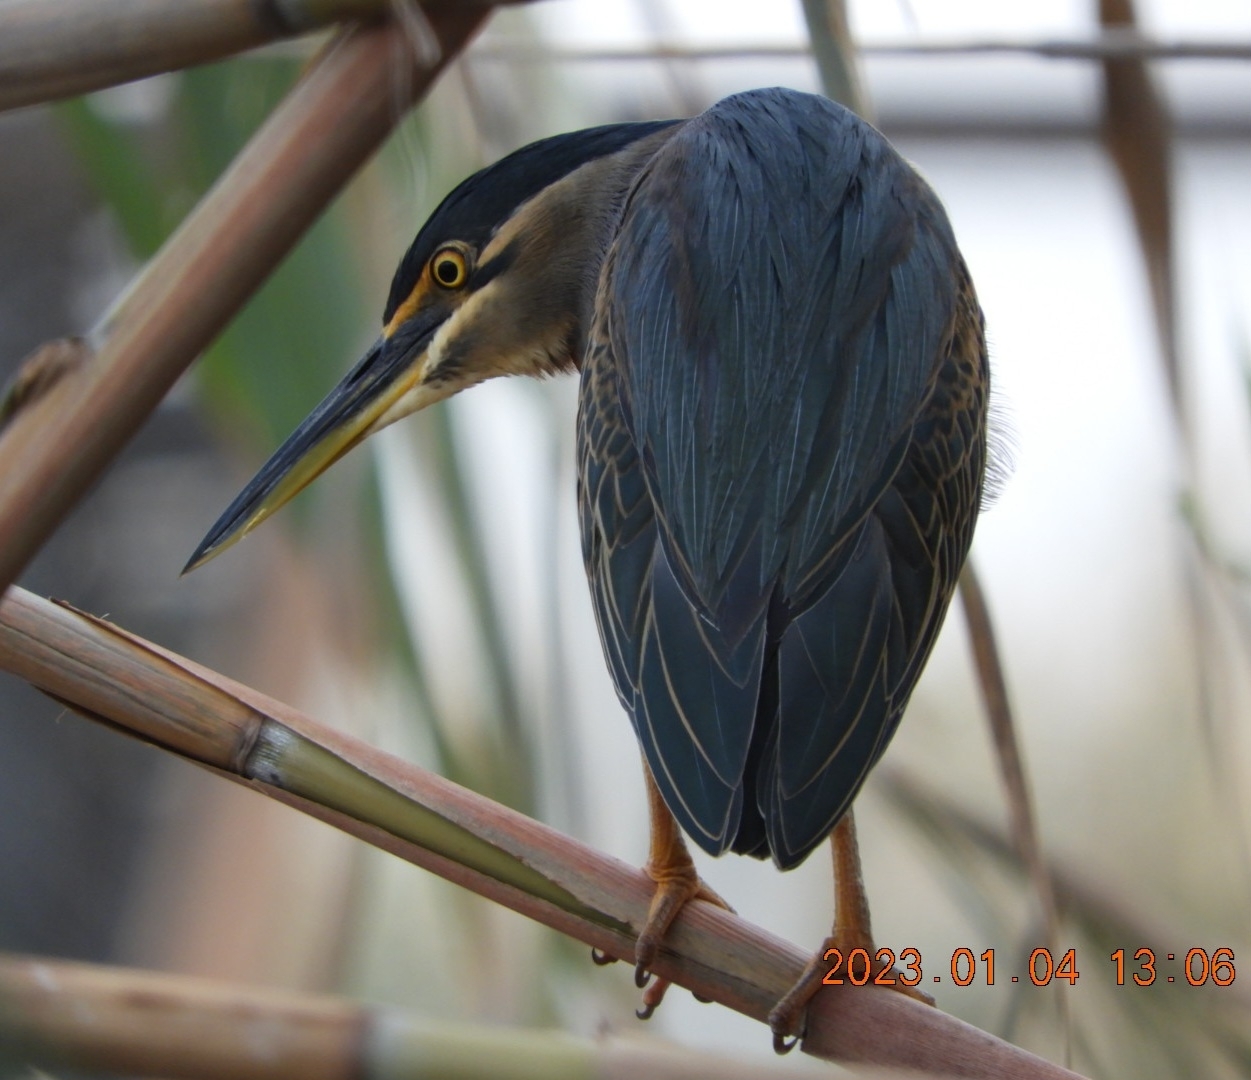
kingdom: Animalia
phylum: Chordata
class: Aves
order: Pelecaniformes
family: Ardeidae
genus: Butorides
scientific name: Butorides striata
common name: Striated heron
